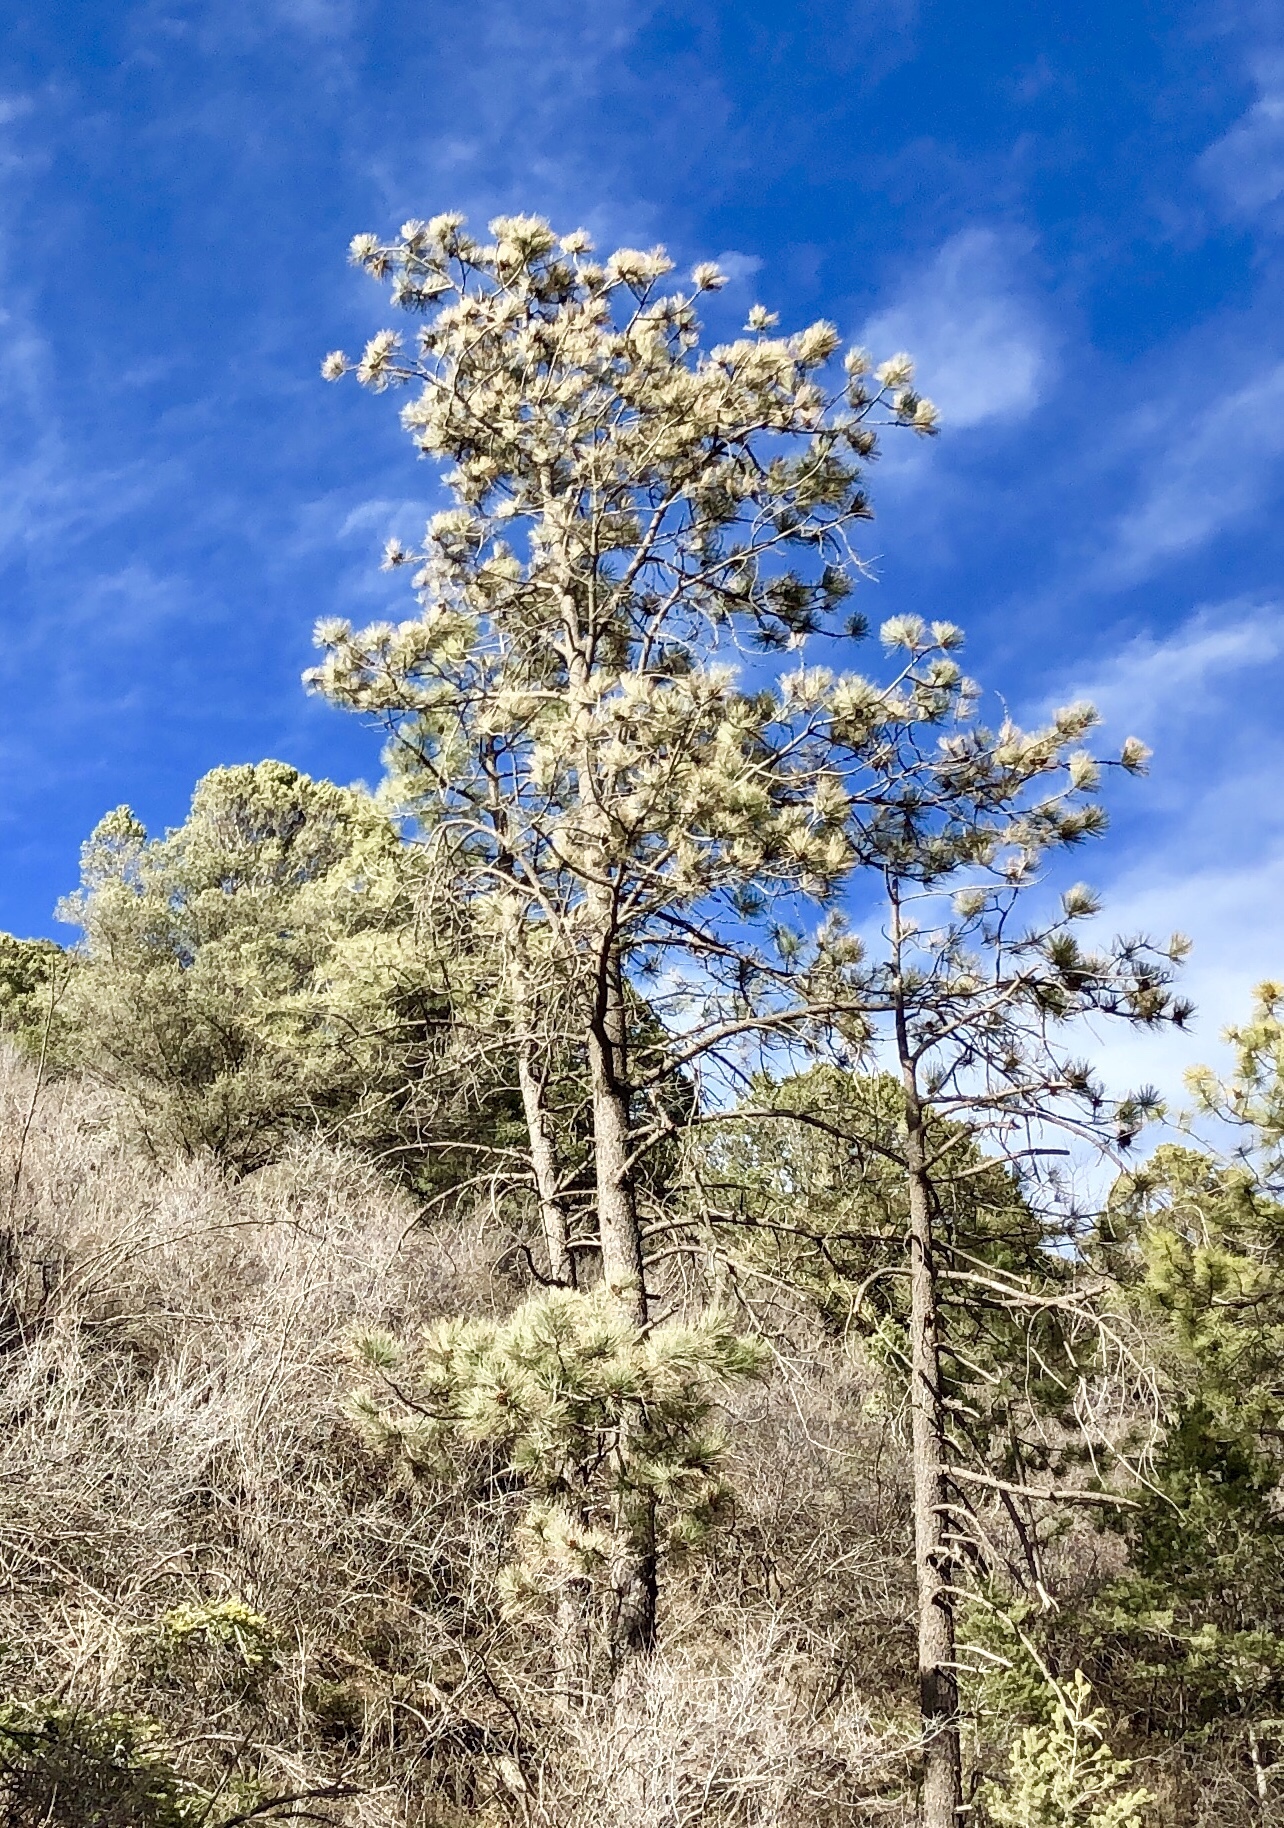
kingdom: Plantae
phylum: Tracheophyta
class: Pinopsida
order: Pinales
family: Pinaceae
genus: Pinus
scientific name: Pinus ponderosa
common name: Western yellow-pine
